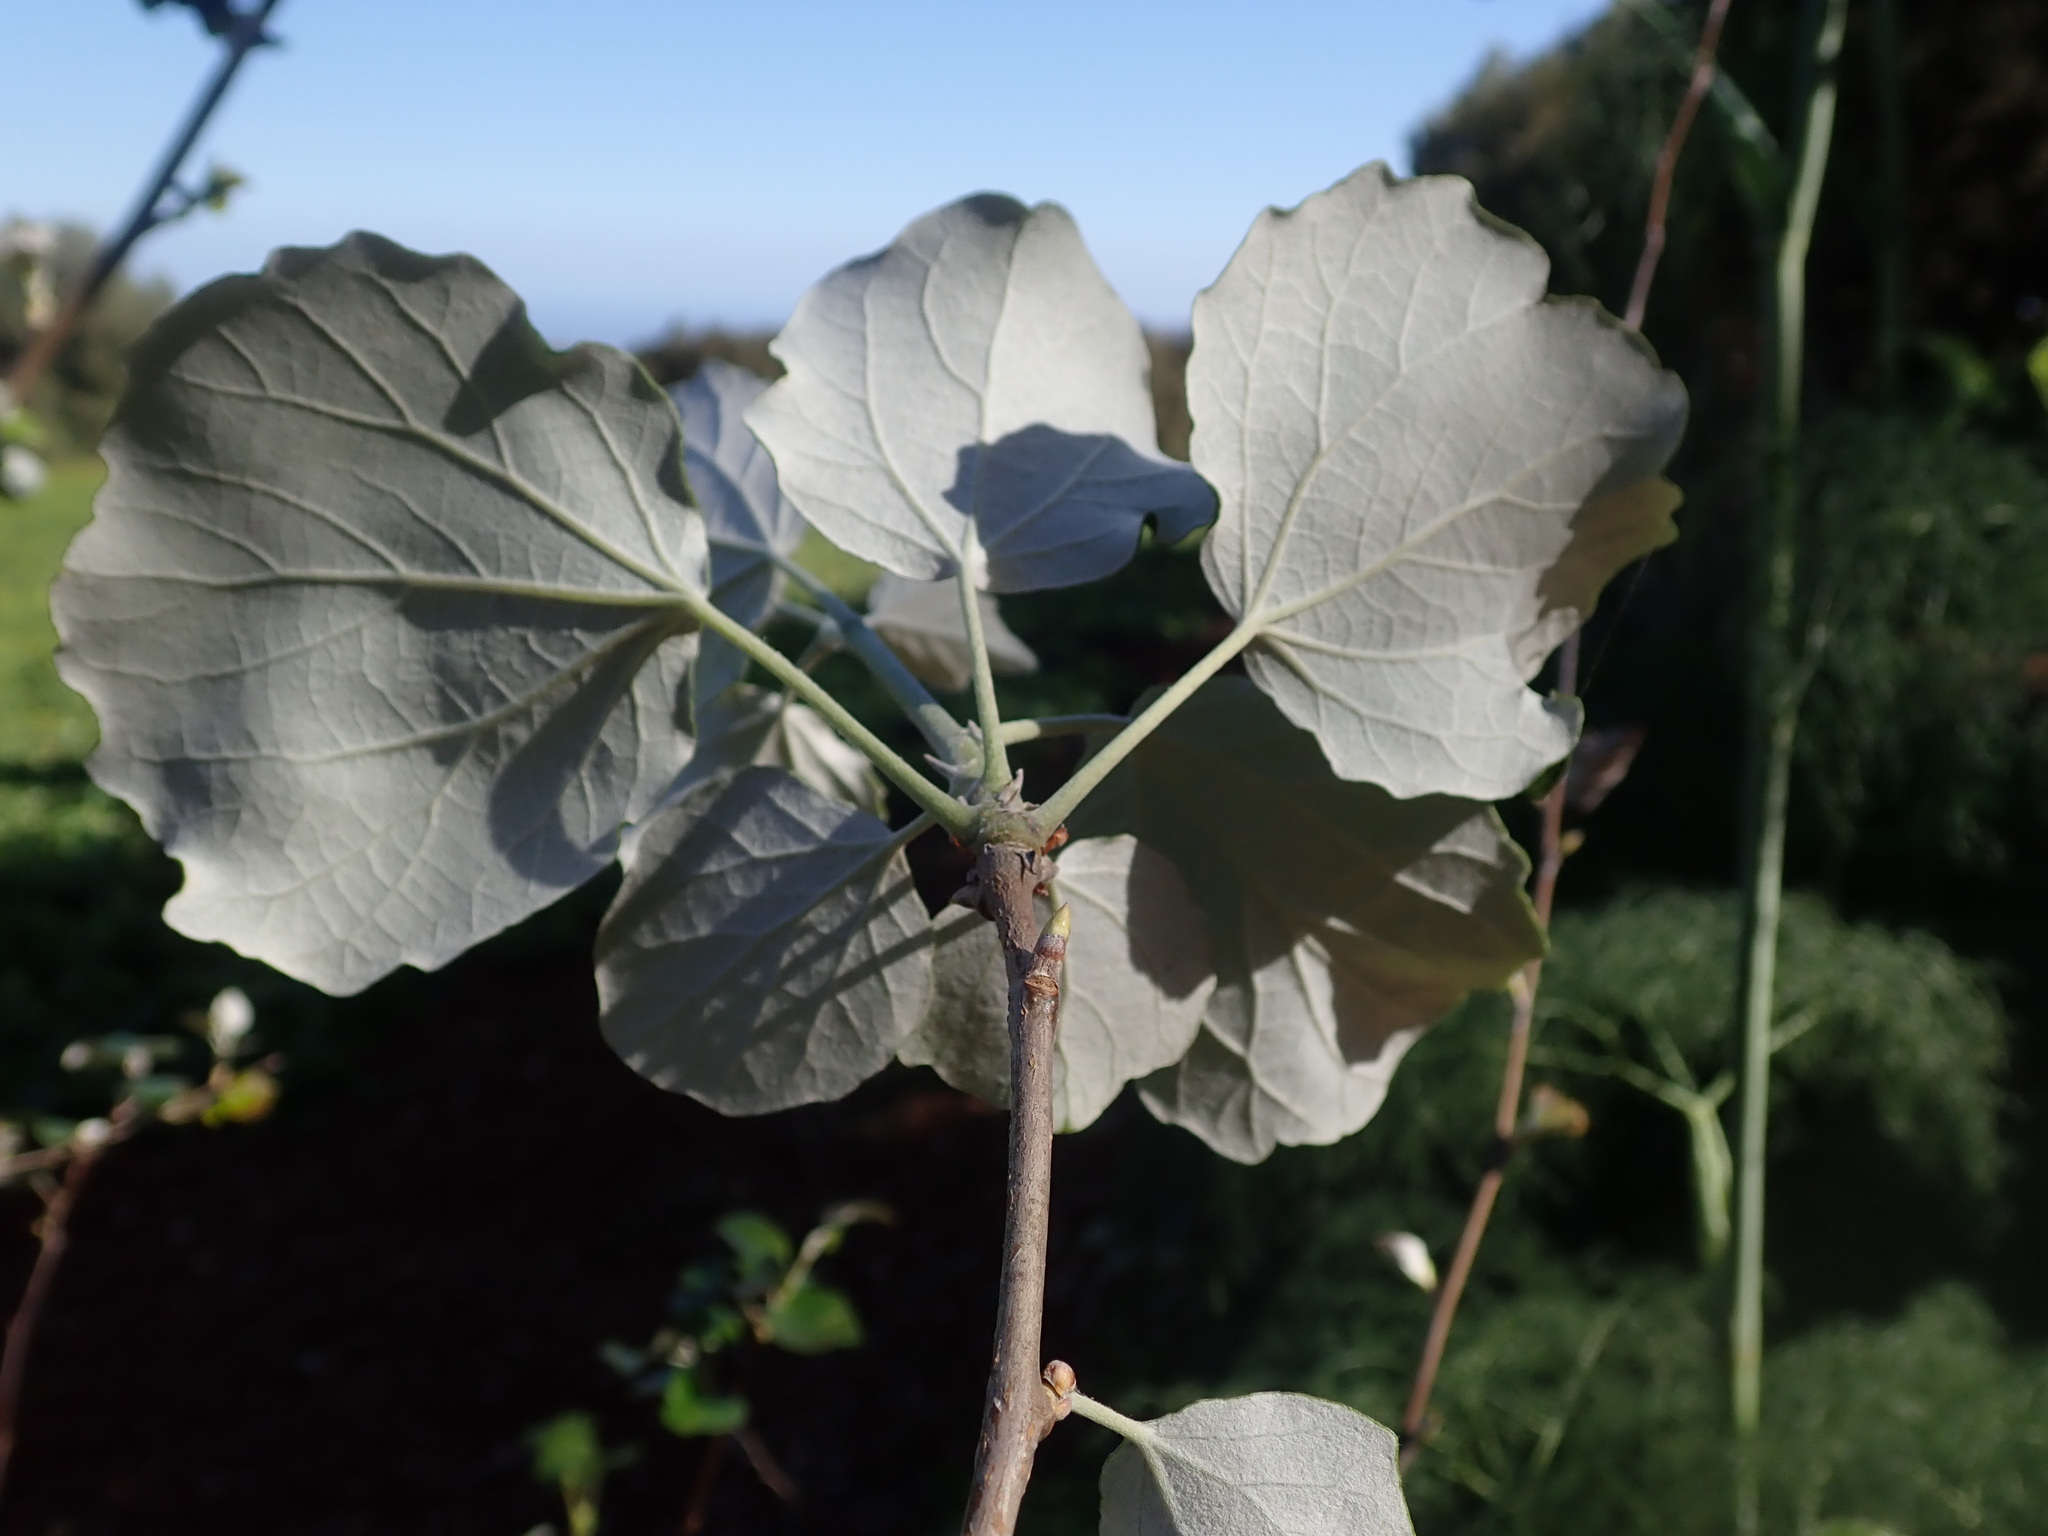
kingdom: Plantae
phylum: Tracheophyta
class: Magnoliopsida
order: Malpighiales
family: Salicaceae
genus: Populus
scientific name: Populus alba
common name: White poplar
